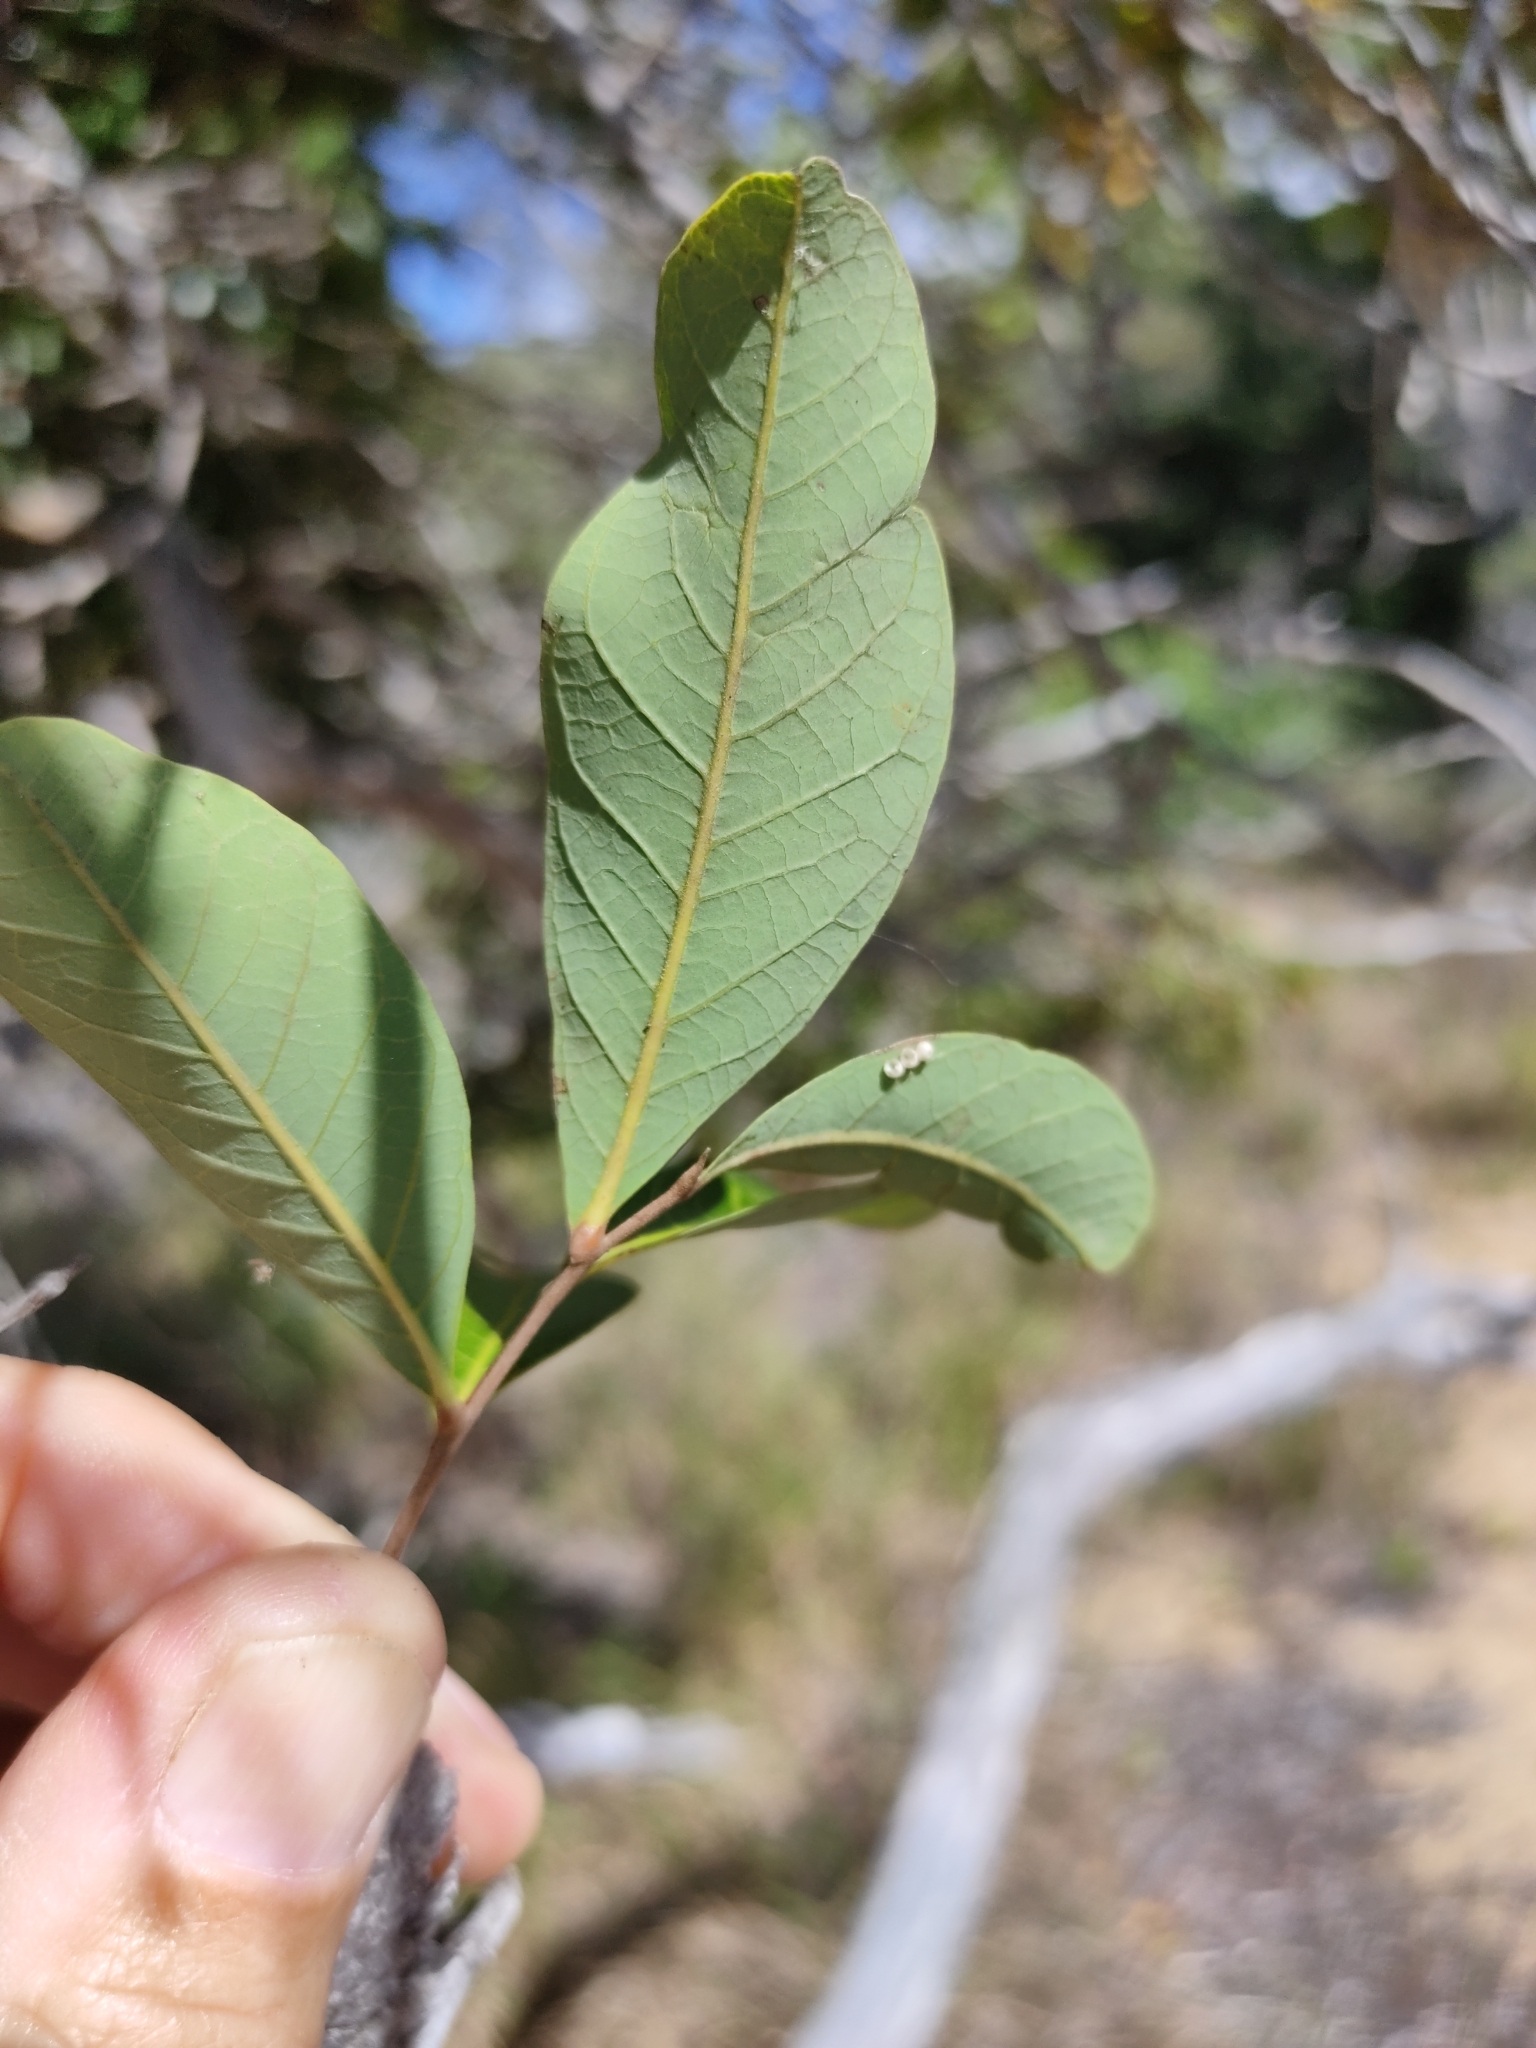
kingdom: Plantae
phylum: Tracheophyta
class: Magnoliopsida
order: Sapindales
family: Sapindaceae
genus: Alectryon
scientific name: Alectryon connatus
